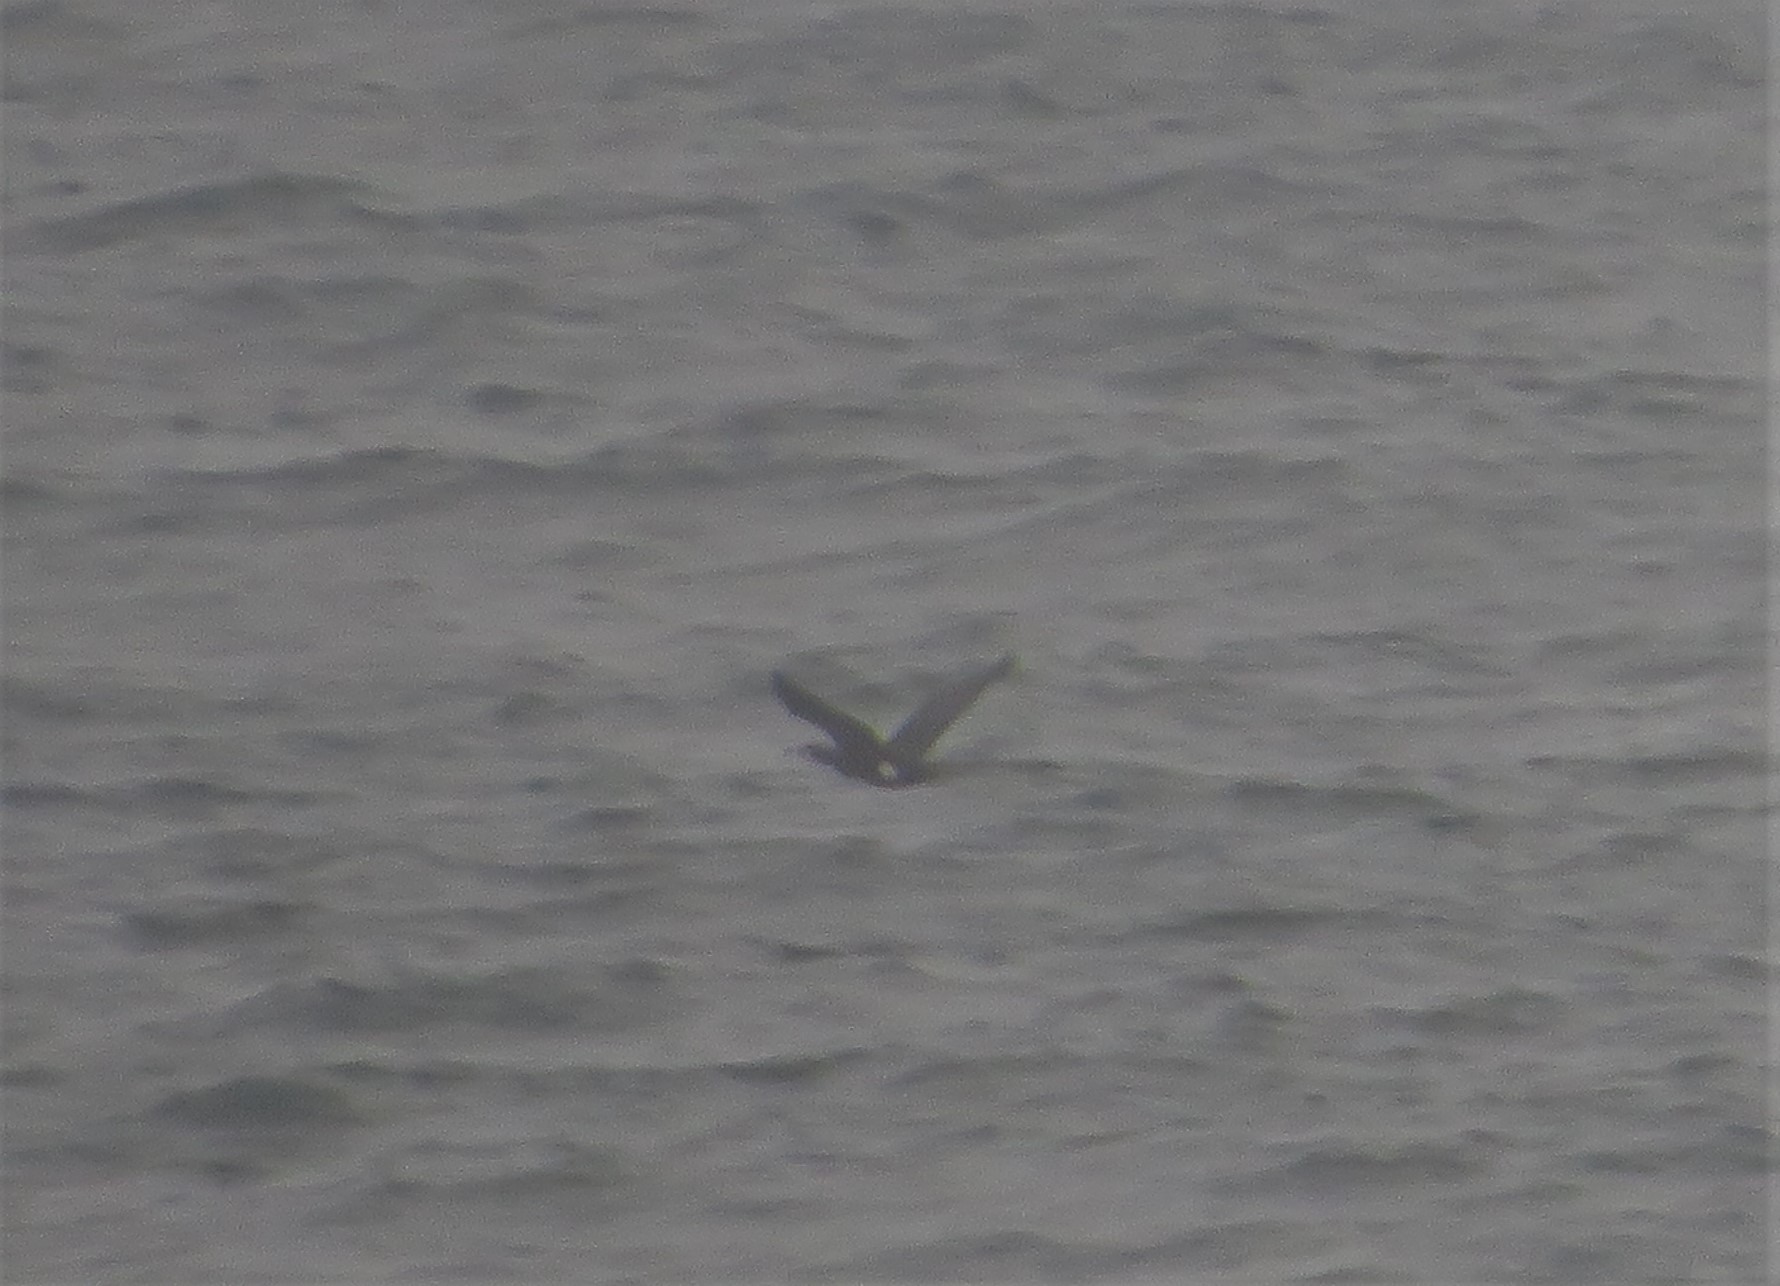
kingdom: Animalia
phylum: Chordata
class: Aves
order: Suliformes
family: Phalacrocoracidae
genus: Phalacrocorax
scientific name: Phalacrocorax carbo
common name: Great cormorant
